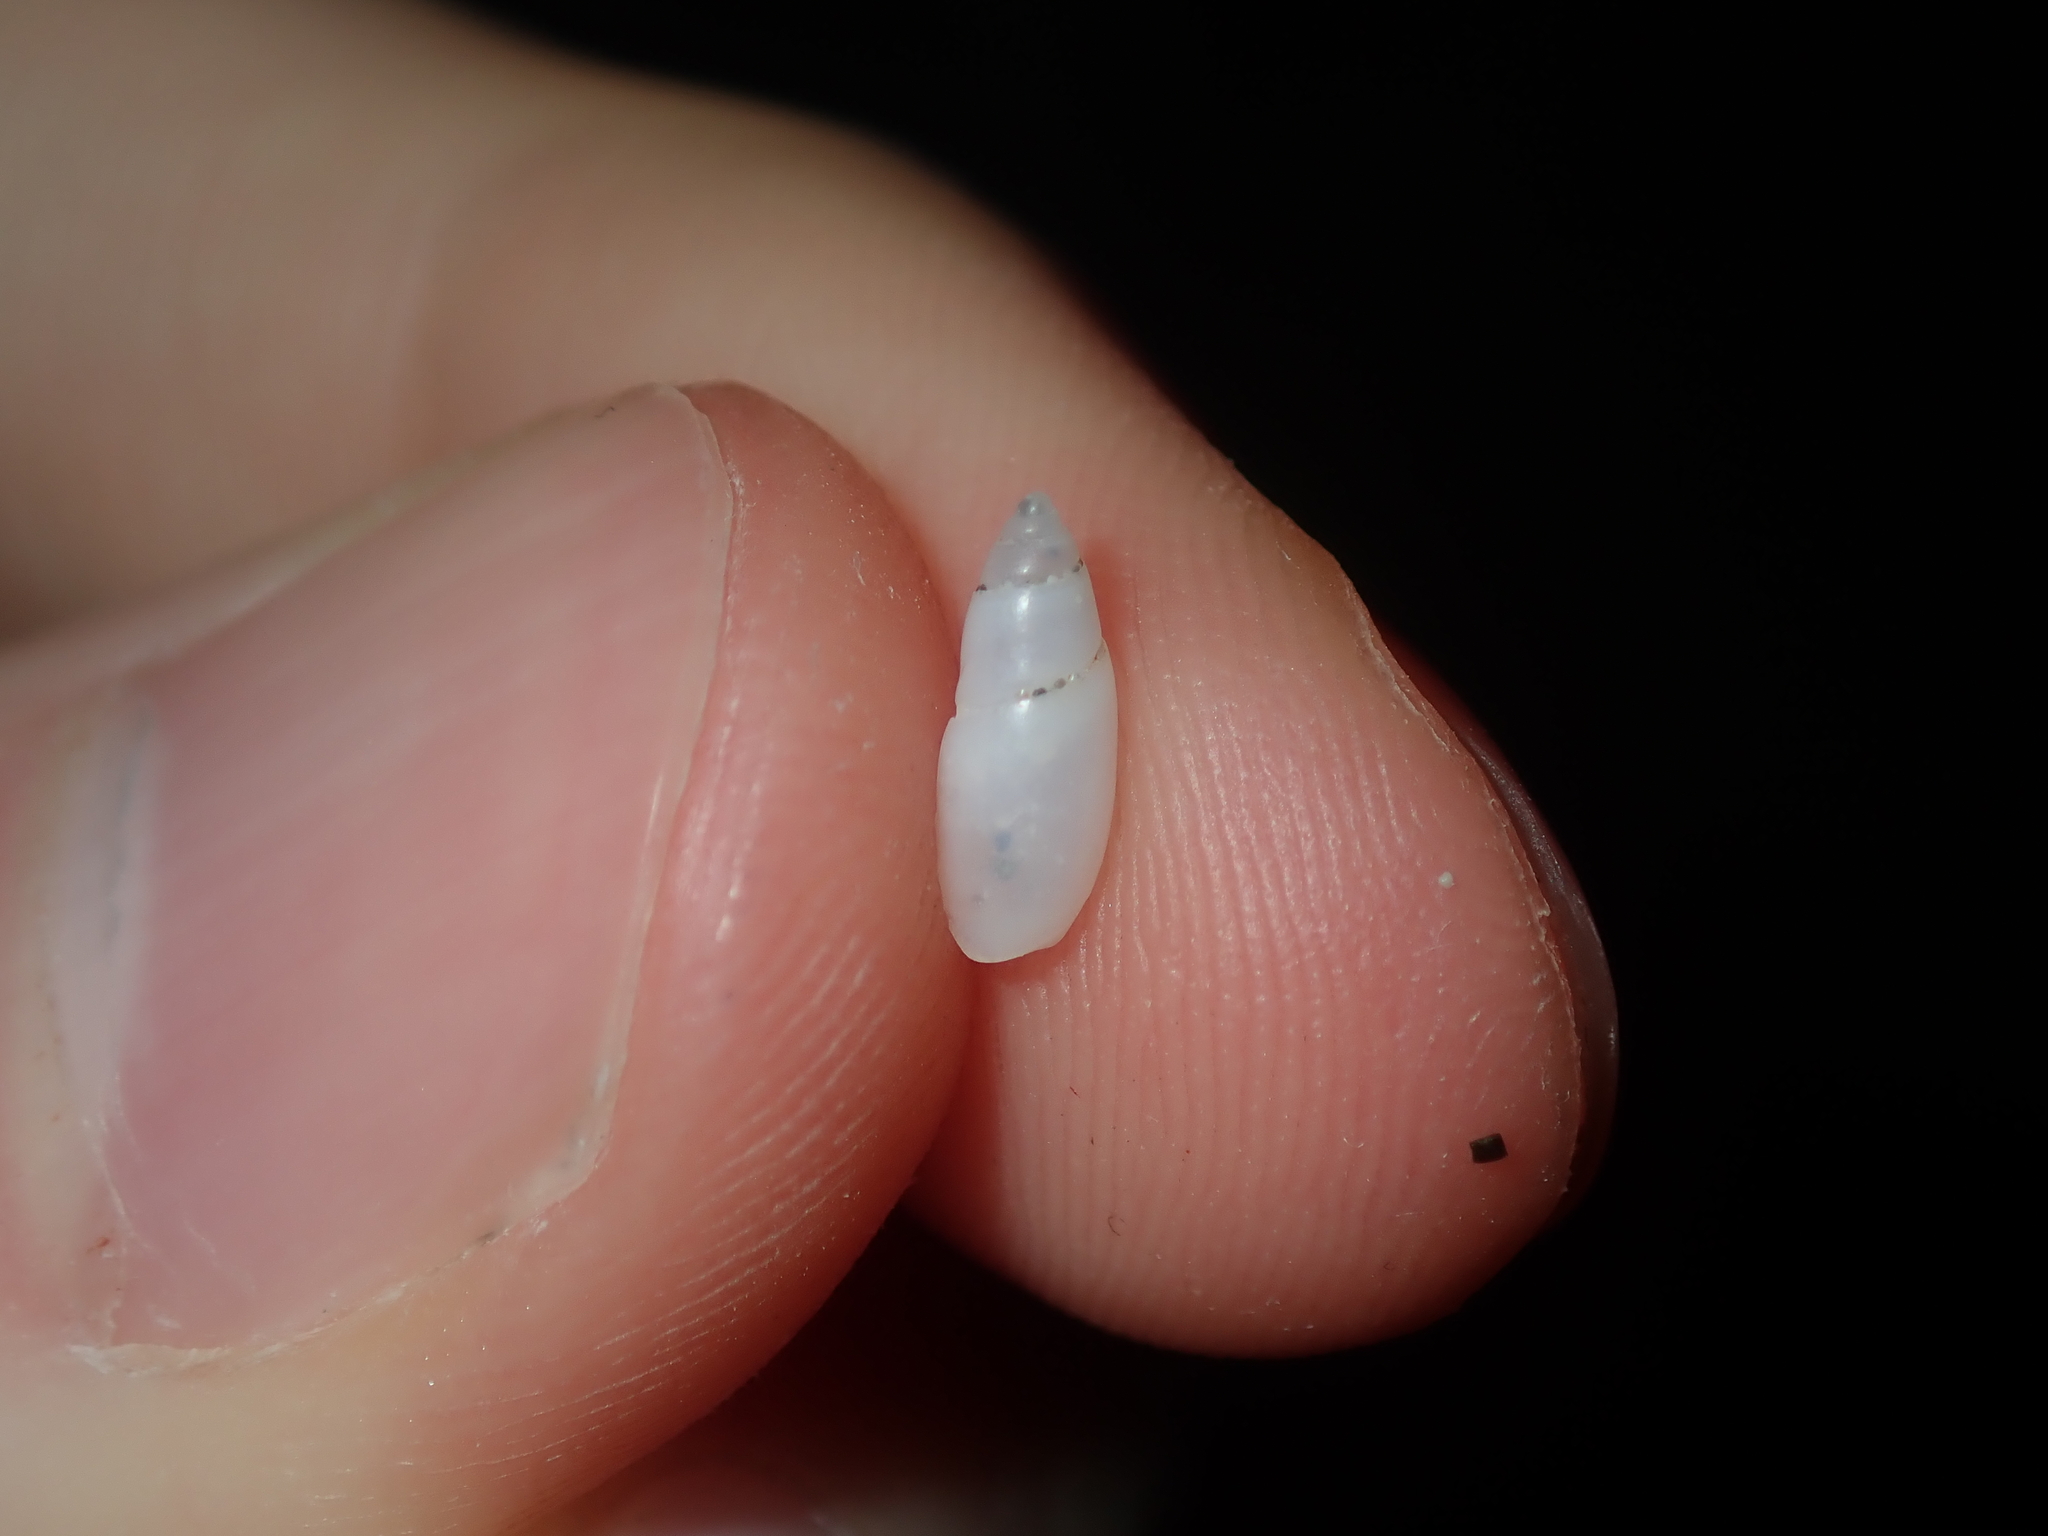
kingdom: Animalia
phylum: Mollusca
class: Gastropoda
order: Neogastropoda
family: Olividae
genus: Cupidoliva
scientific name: Cupidoliva nympha
